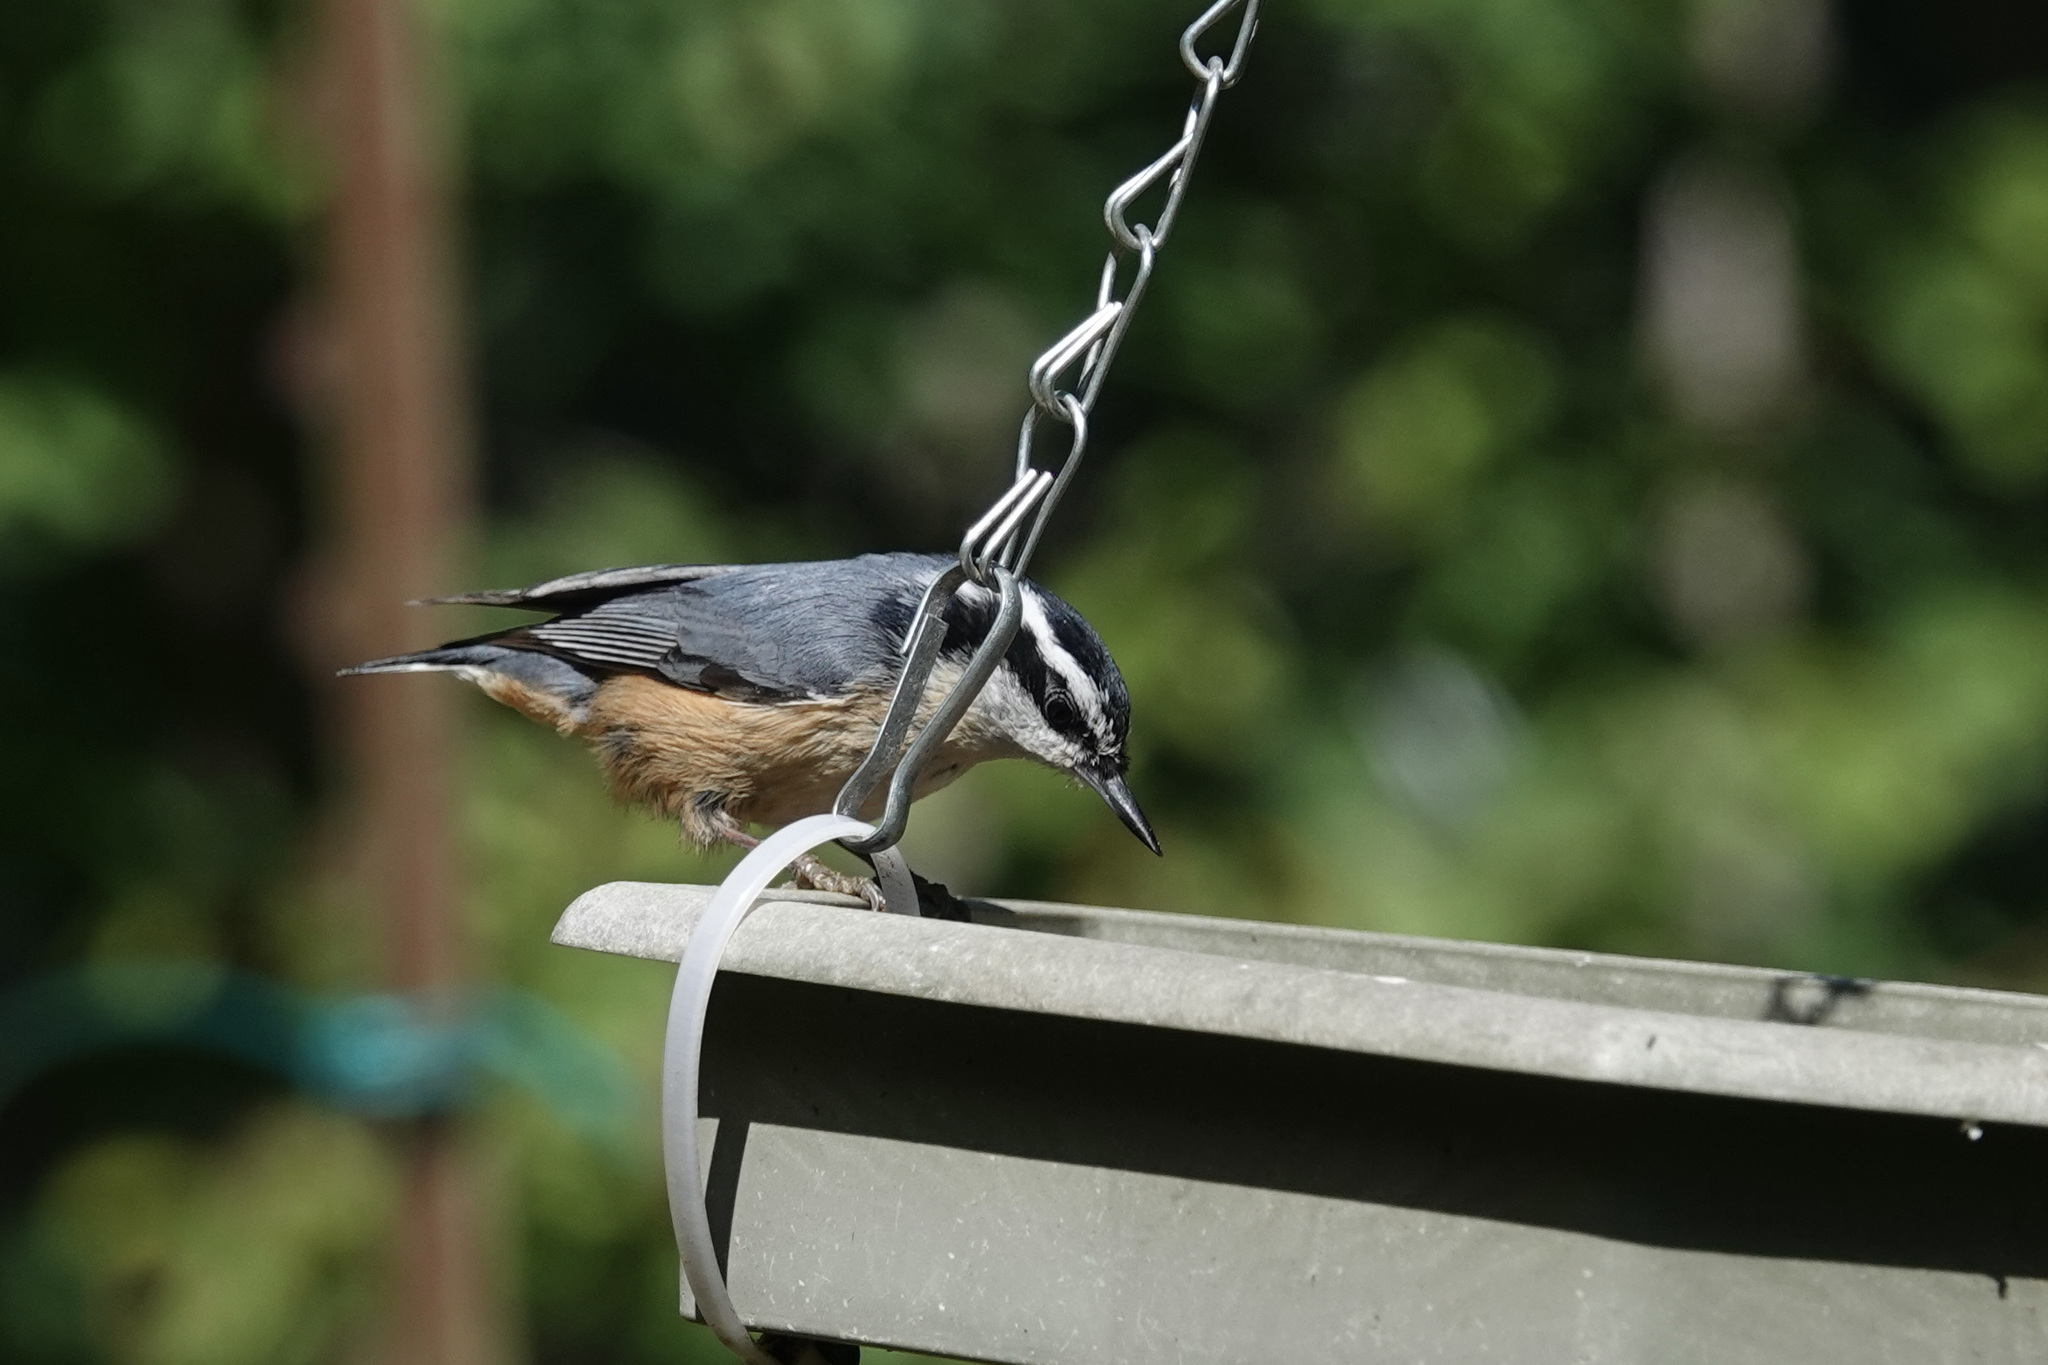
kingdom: Animalia
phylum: Chordata
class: Aves
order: Passeriformes
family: Sittidae
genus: Sitta
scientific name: Sitta canadensis
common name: Red-breasted nuthatch
